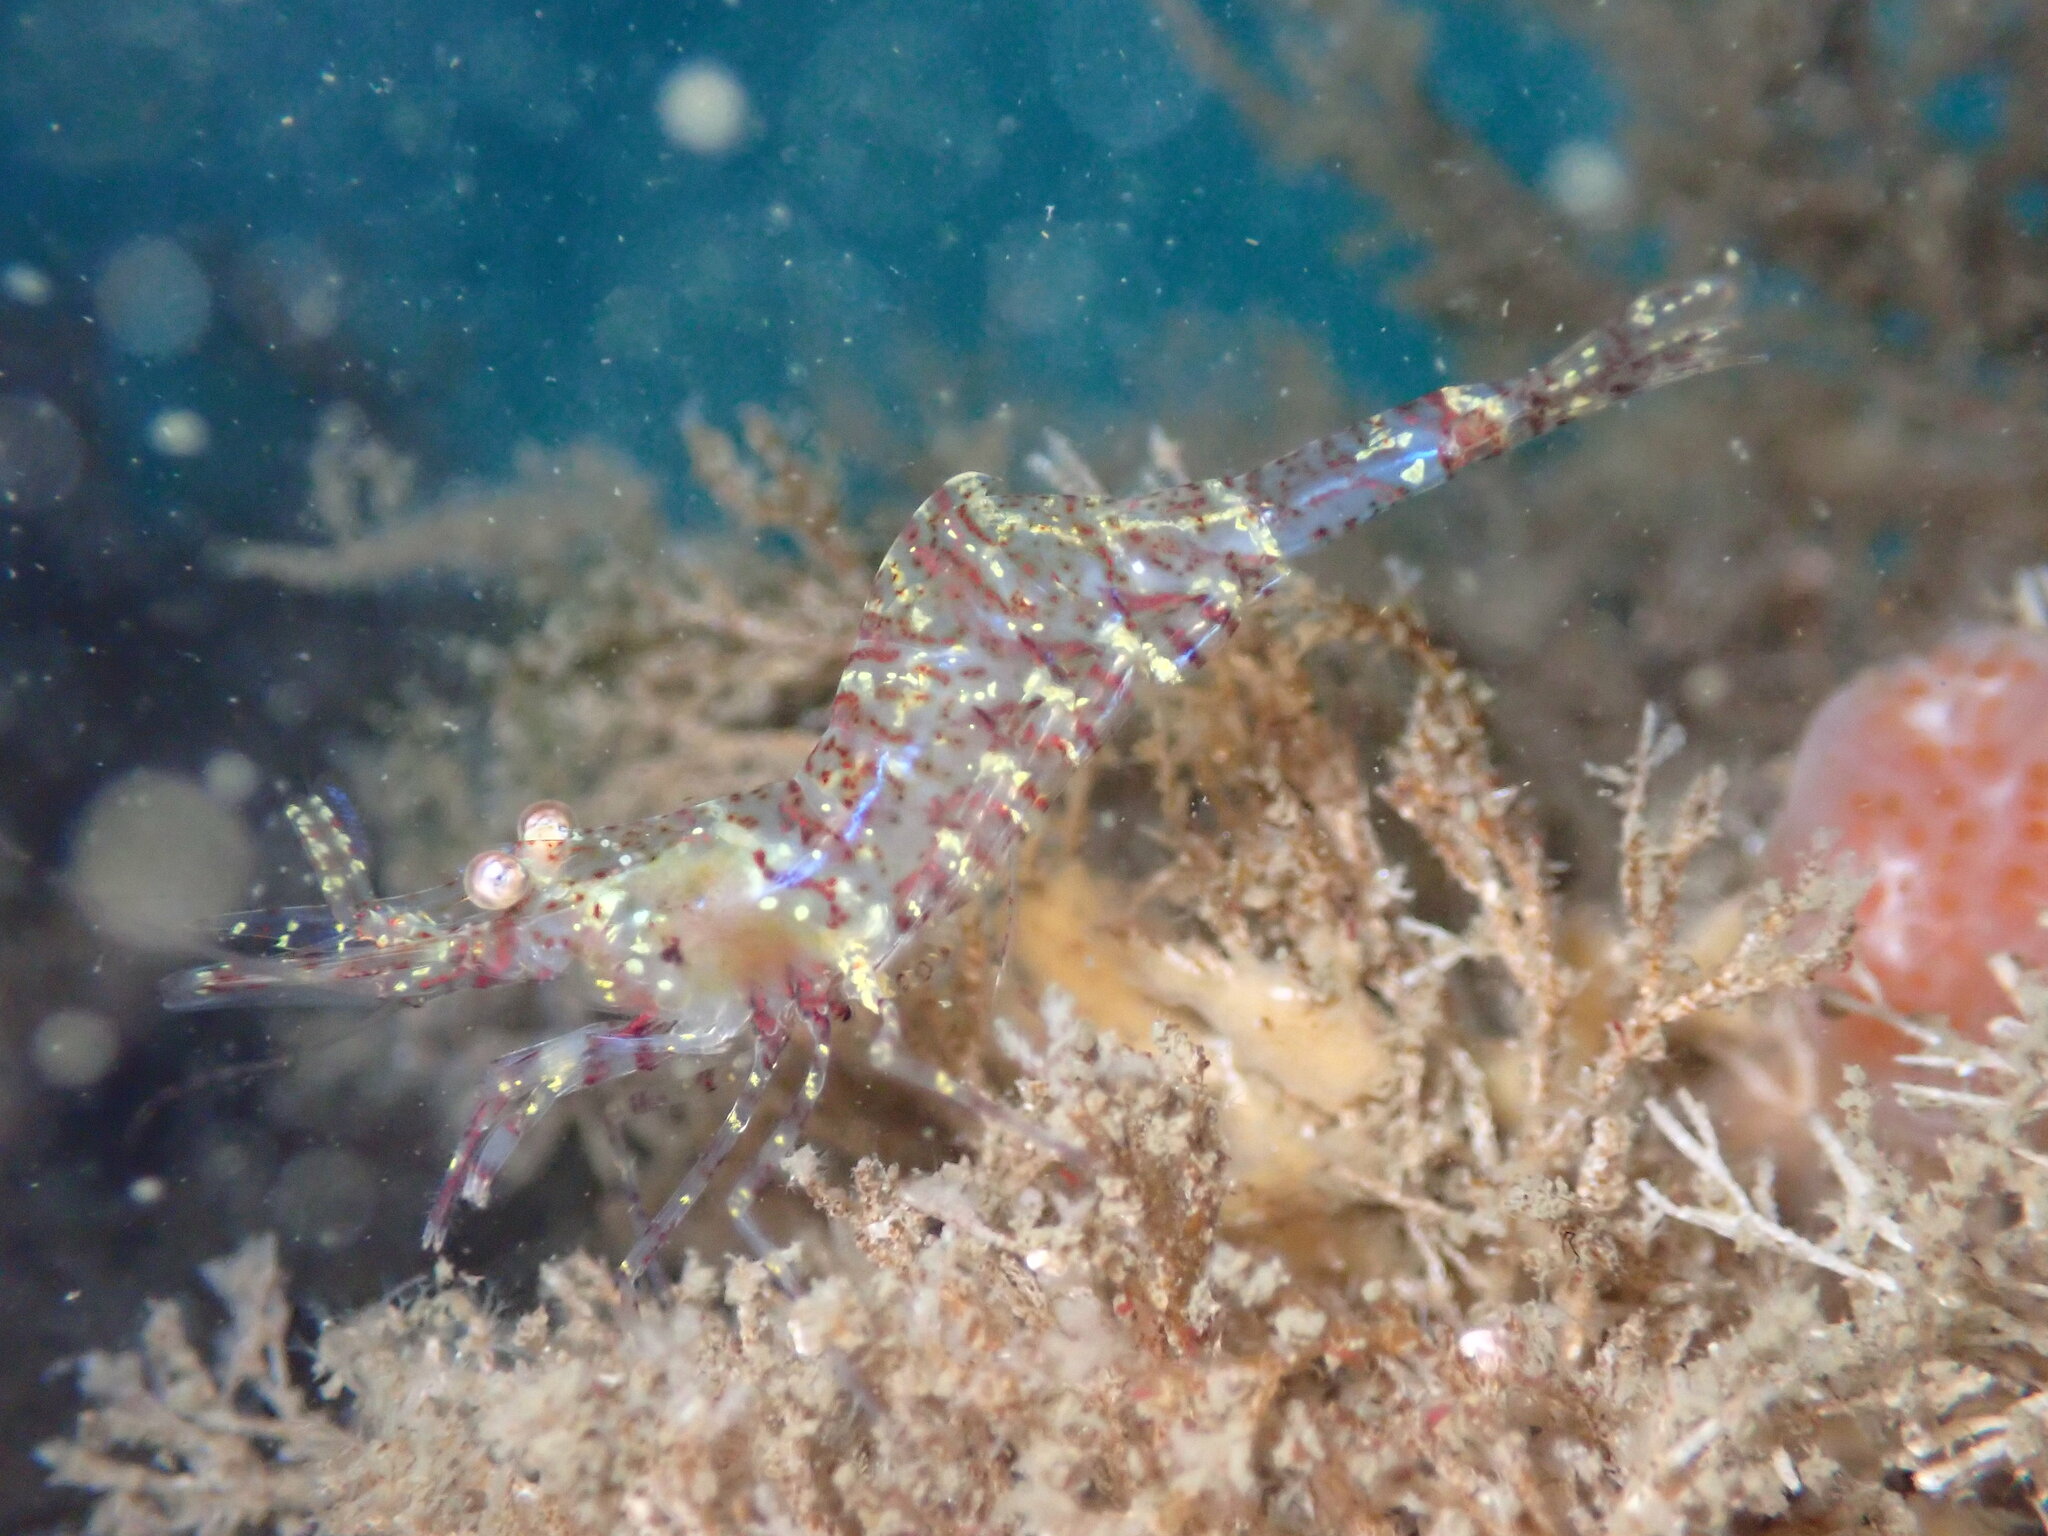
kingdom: Animalia
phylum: Arthropoda
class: Malacostraca
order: Decapoda
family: Thoridae
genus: Heptacarpus
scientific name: Heptacarpus tridens
